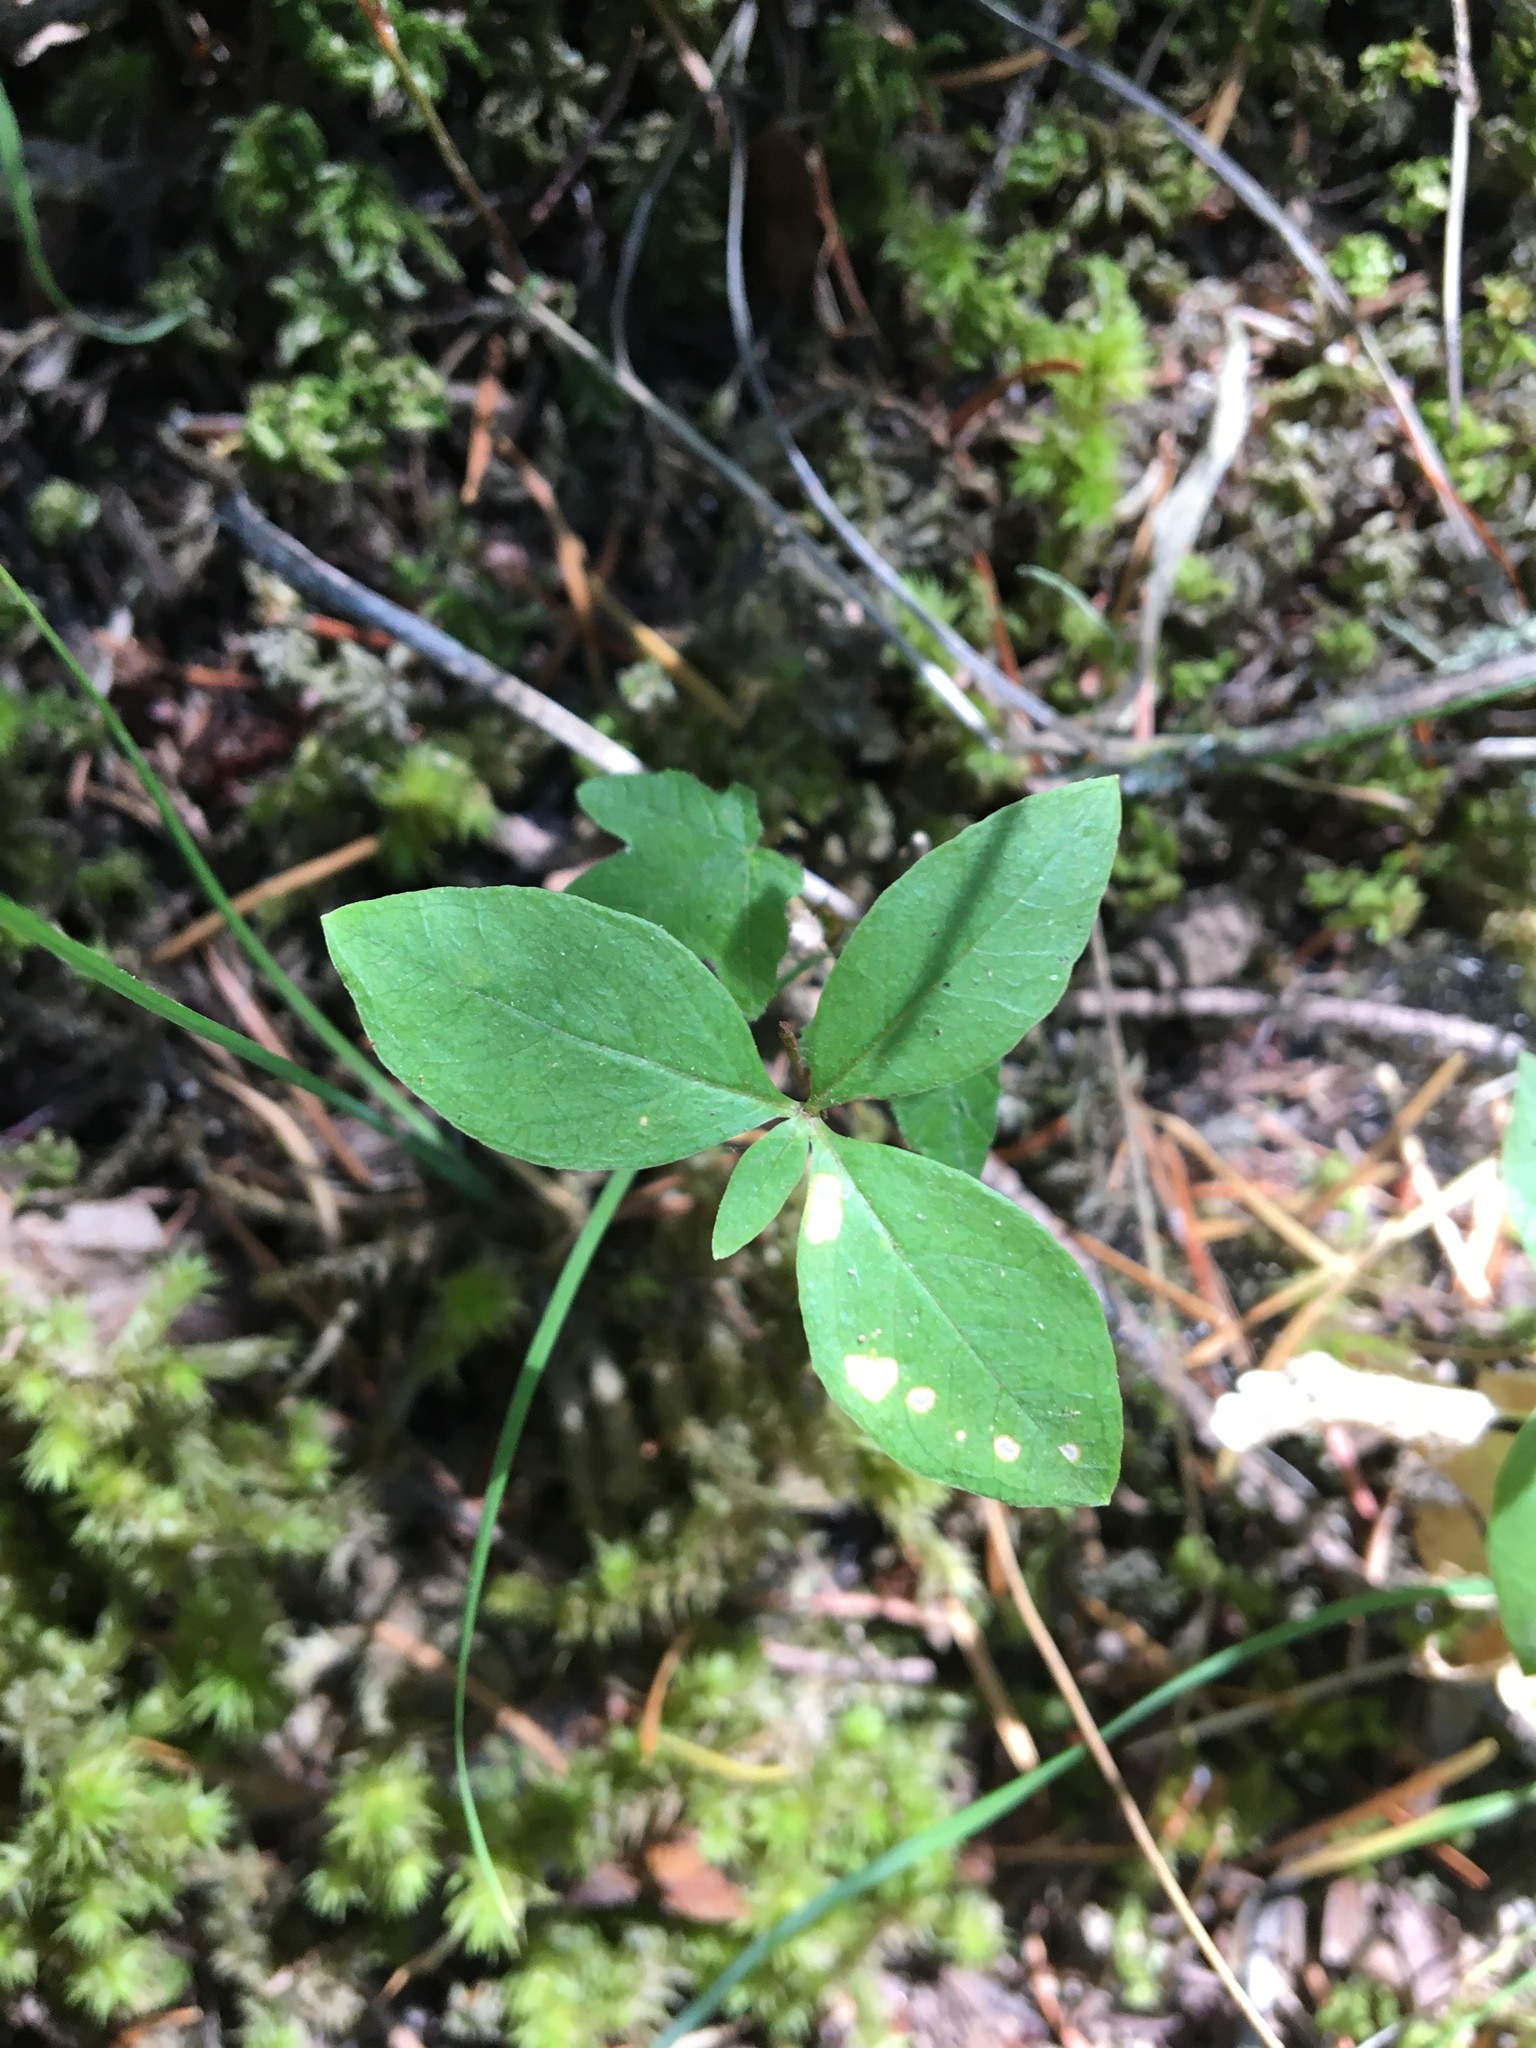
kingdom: Plantae
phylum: Tracheophyta
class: Magnoliopsida
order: Ericales
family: Primulaceae
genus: Lysimachia
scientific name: Lysimachia latifolia
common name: Pacific starflower
